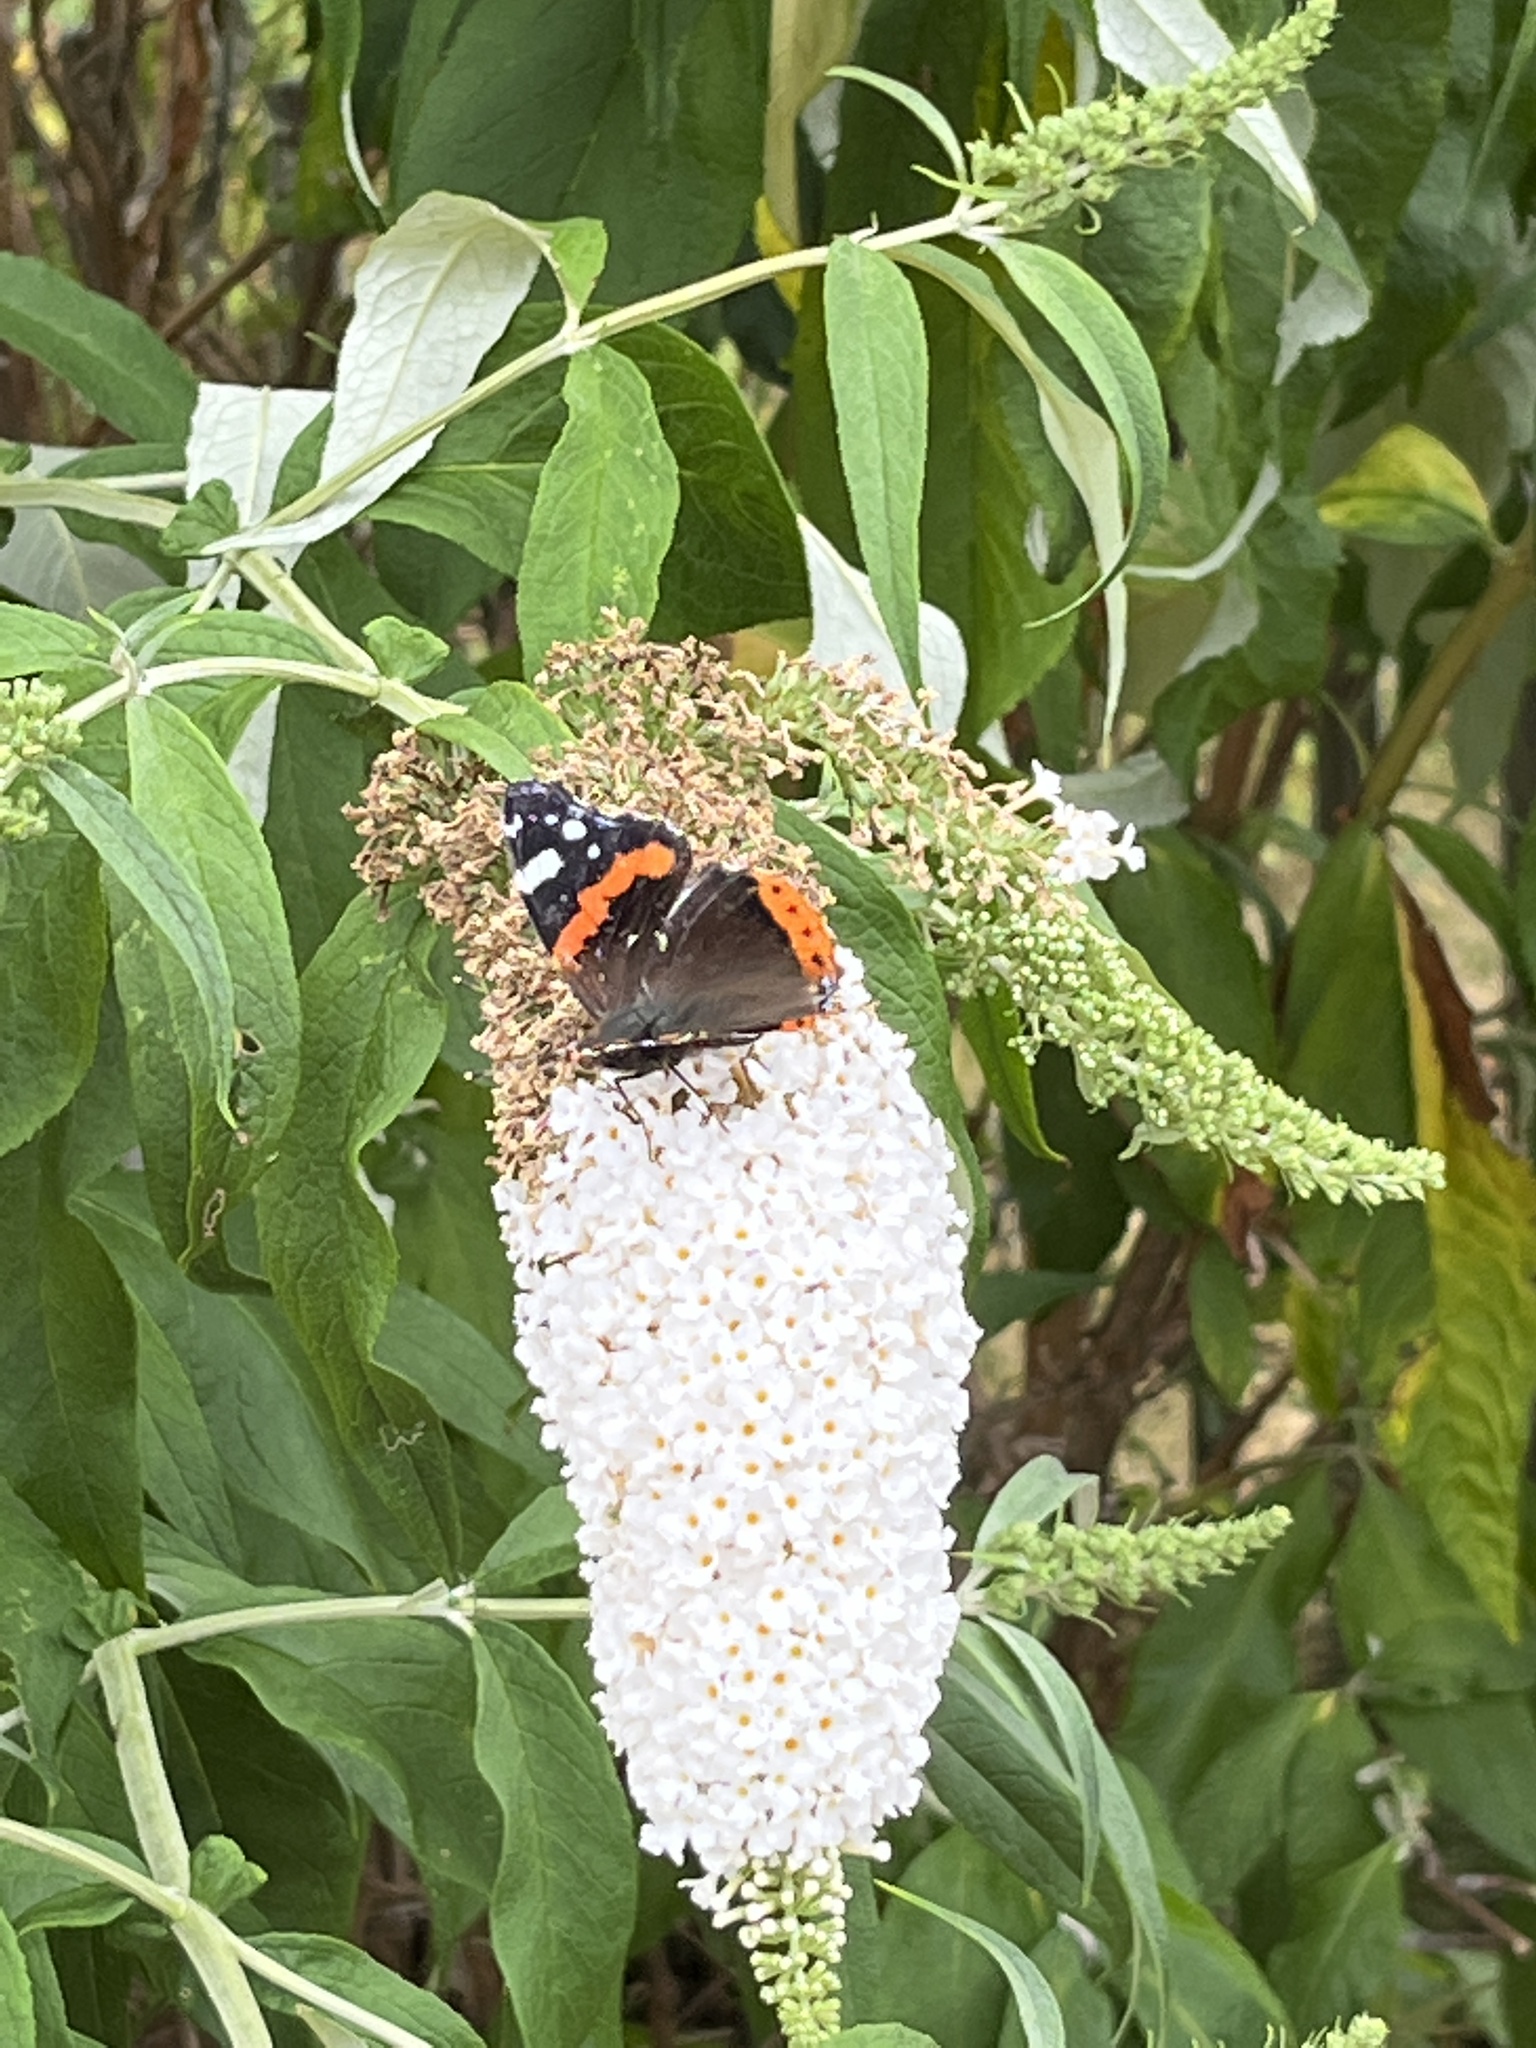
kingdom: Animalia
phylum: Arthropoda
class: Insecta
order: Lepidoptera
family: Nymphalidae
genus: Vanessa
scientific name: Vanessa atalanta
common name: Red admiral
